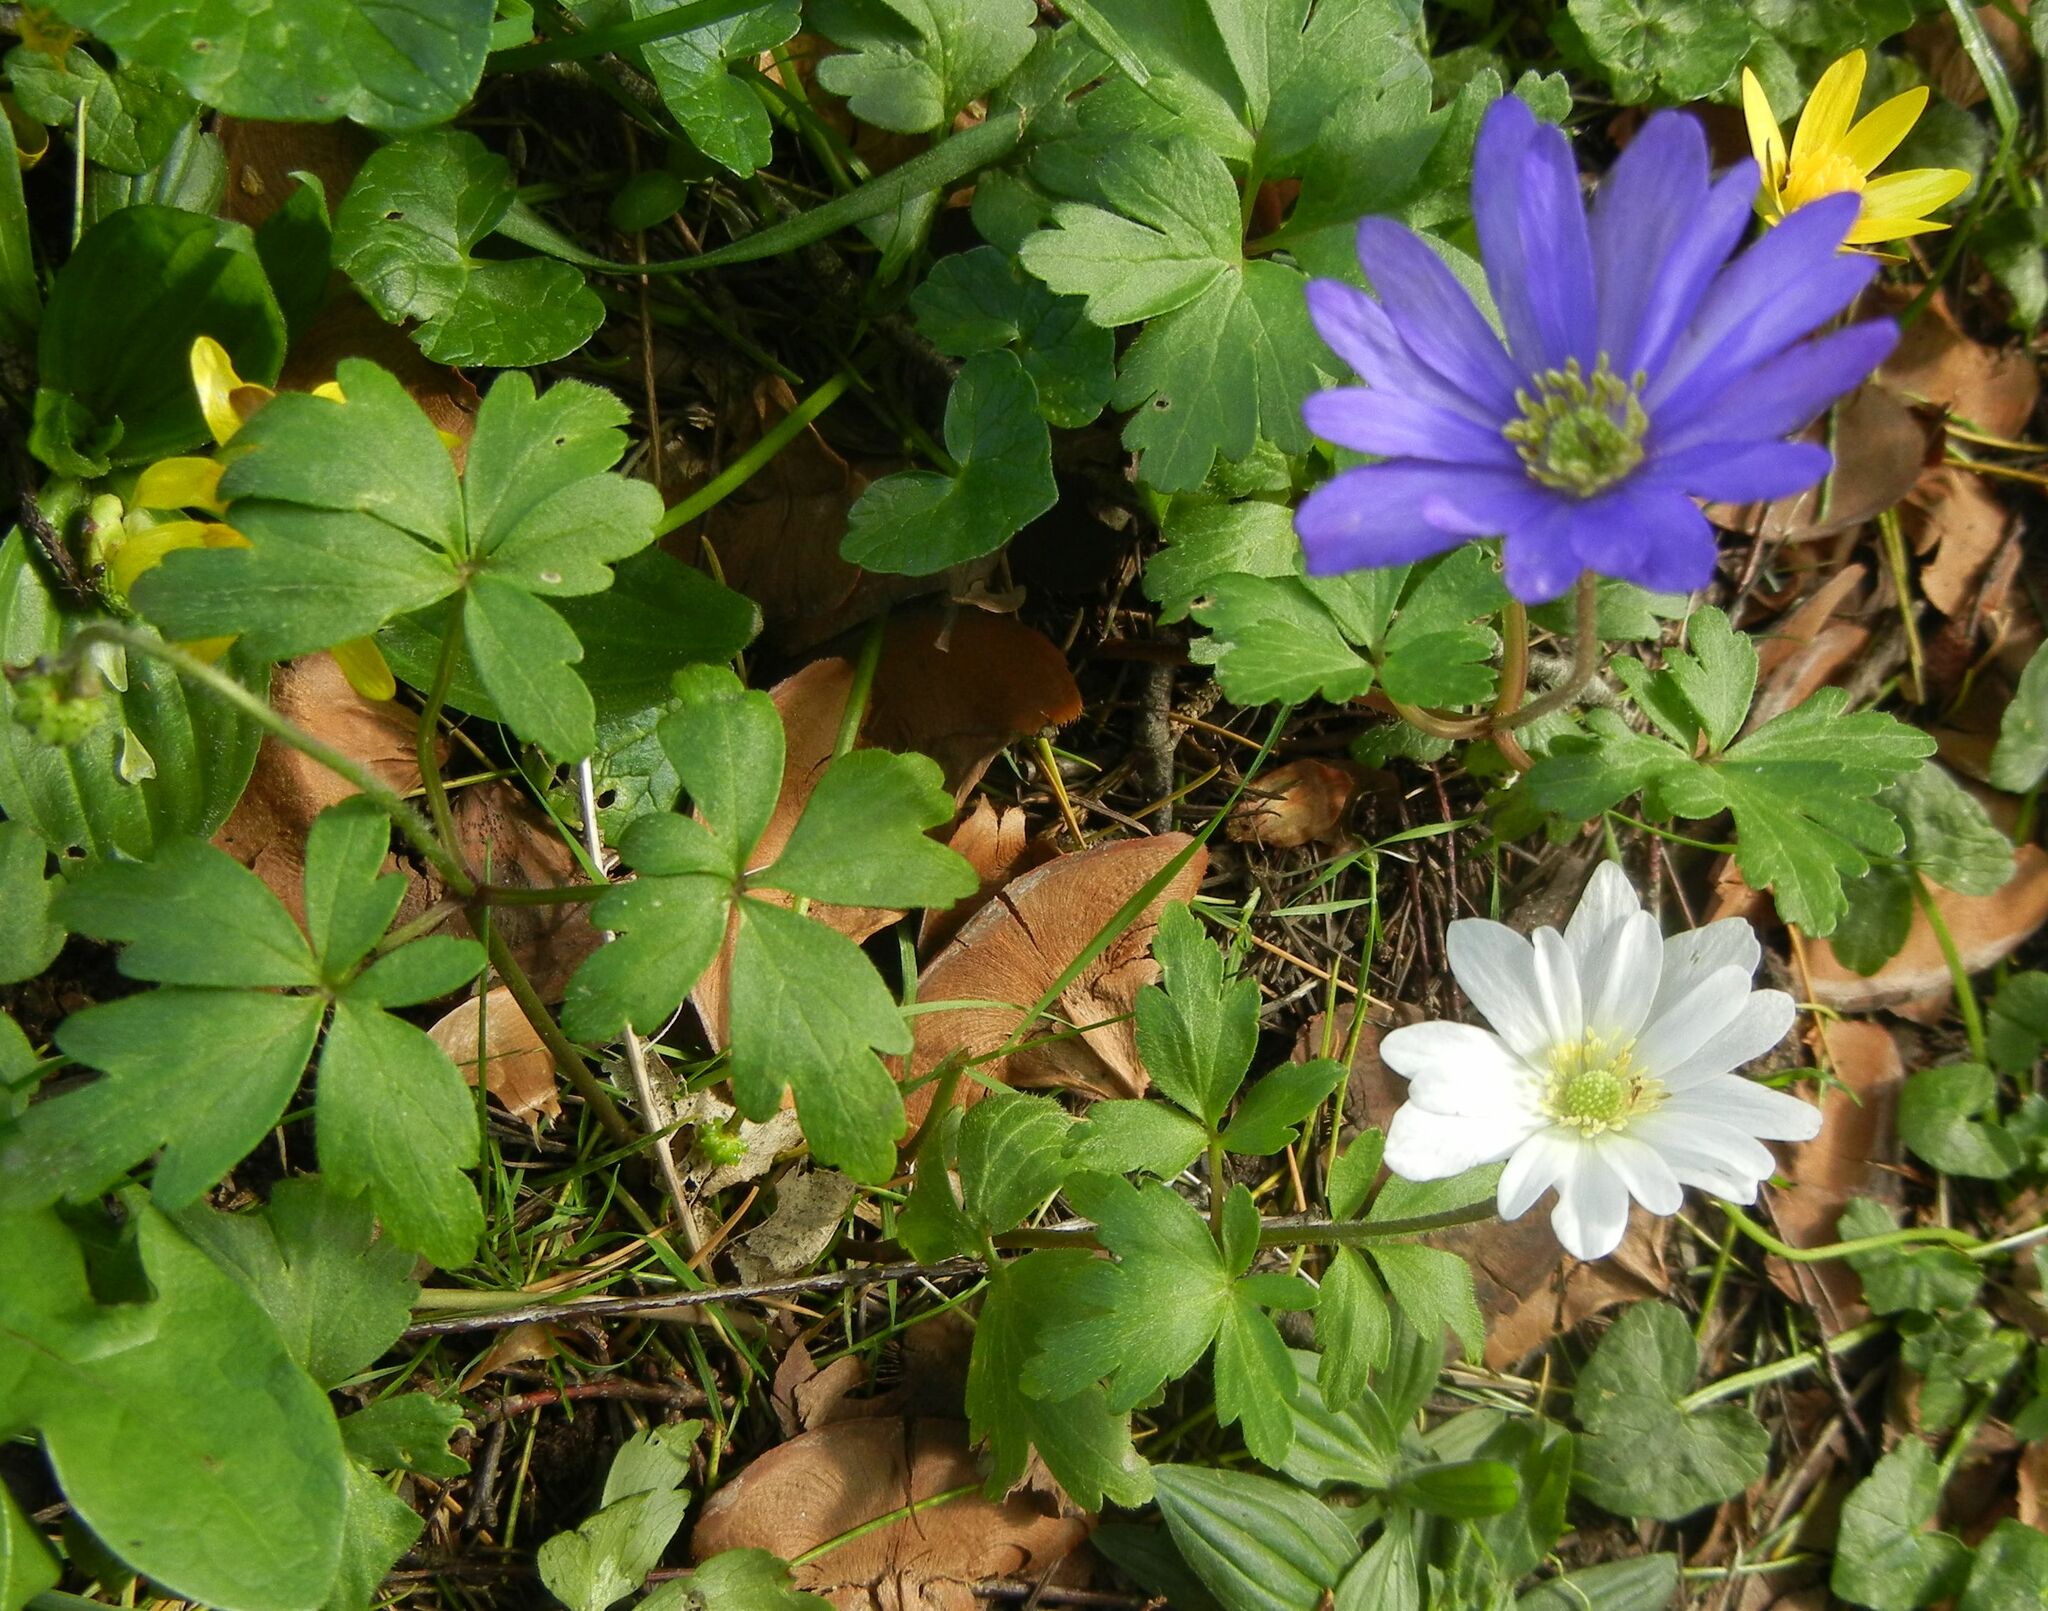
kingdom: Plantae
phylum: Tracheophyta
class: Magnoliopsida
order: Ranunculales
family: Ranunculaceae
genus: Anemone
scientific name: Anemone blanda
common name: Balkan anemone
